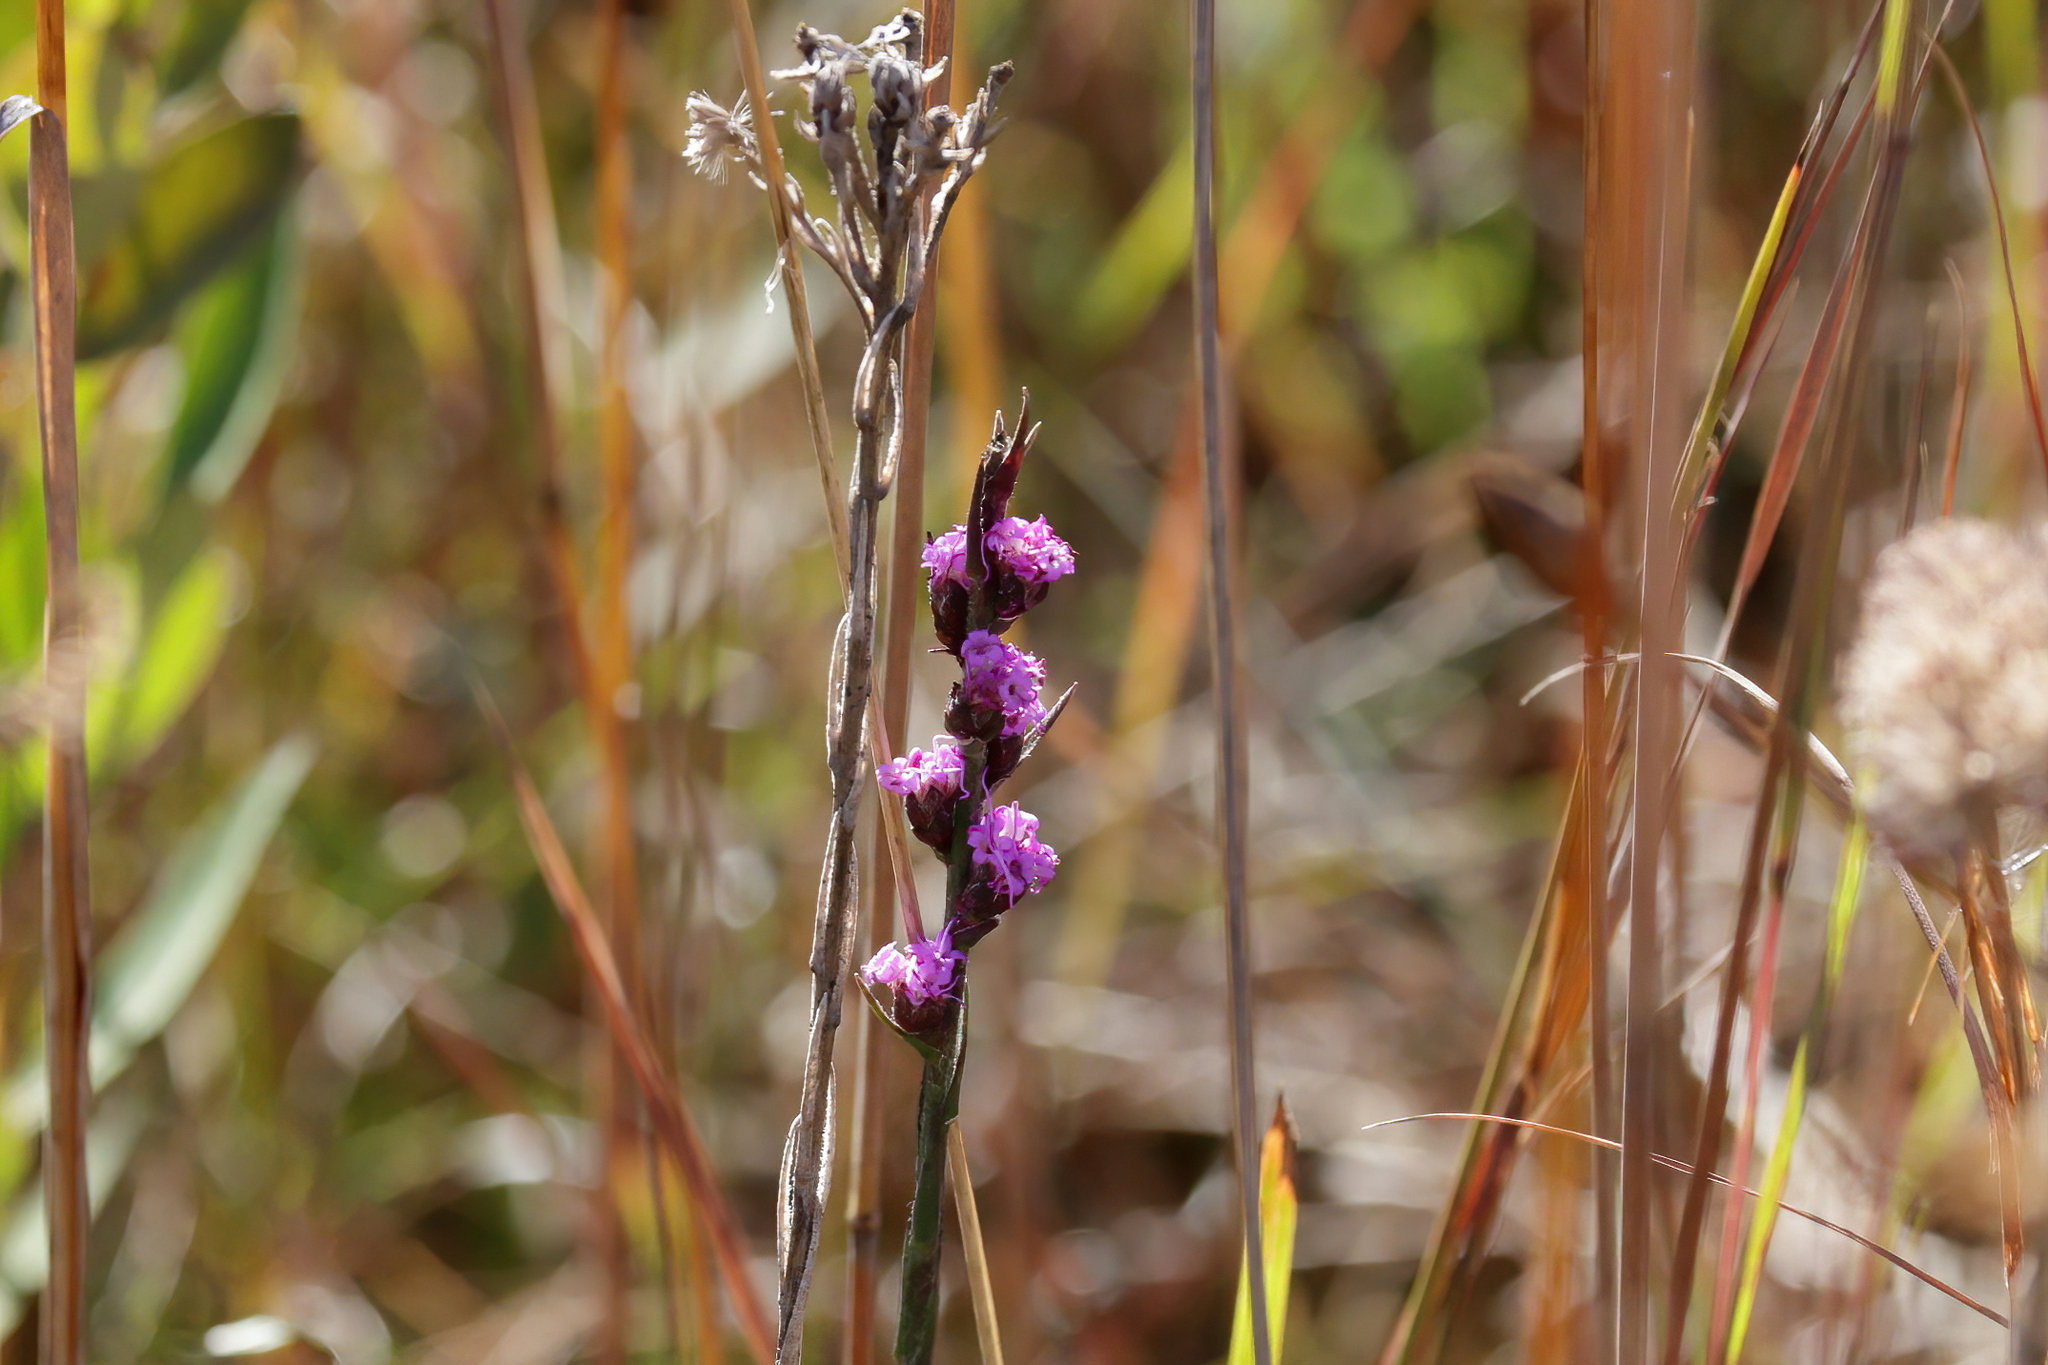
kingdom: Plantae
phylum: Tracheophyta
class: Magnoliopsida
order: Asterales
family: Asteraceae
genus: Carphephorus
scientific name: Carphephorus pseudoliatris
